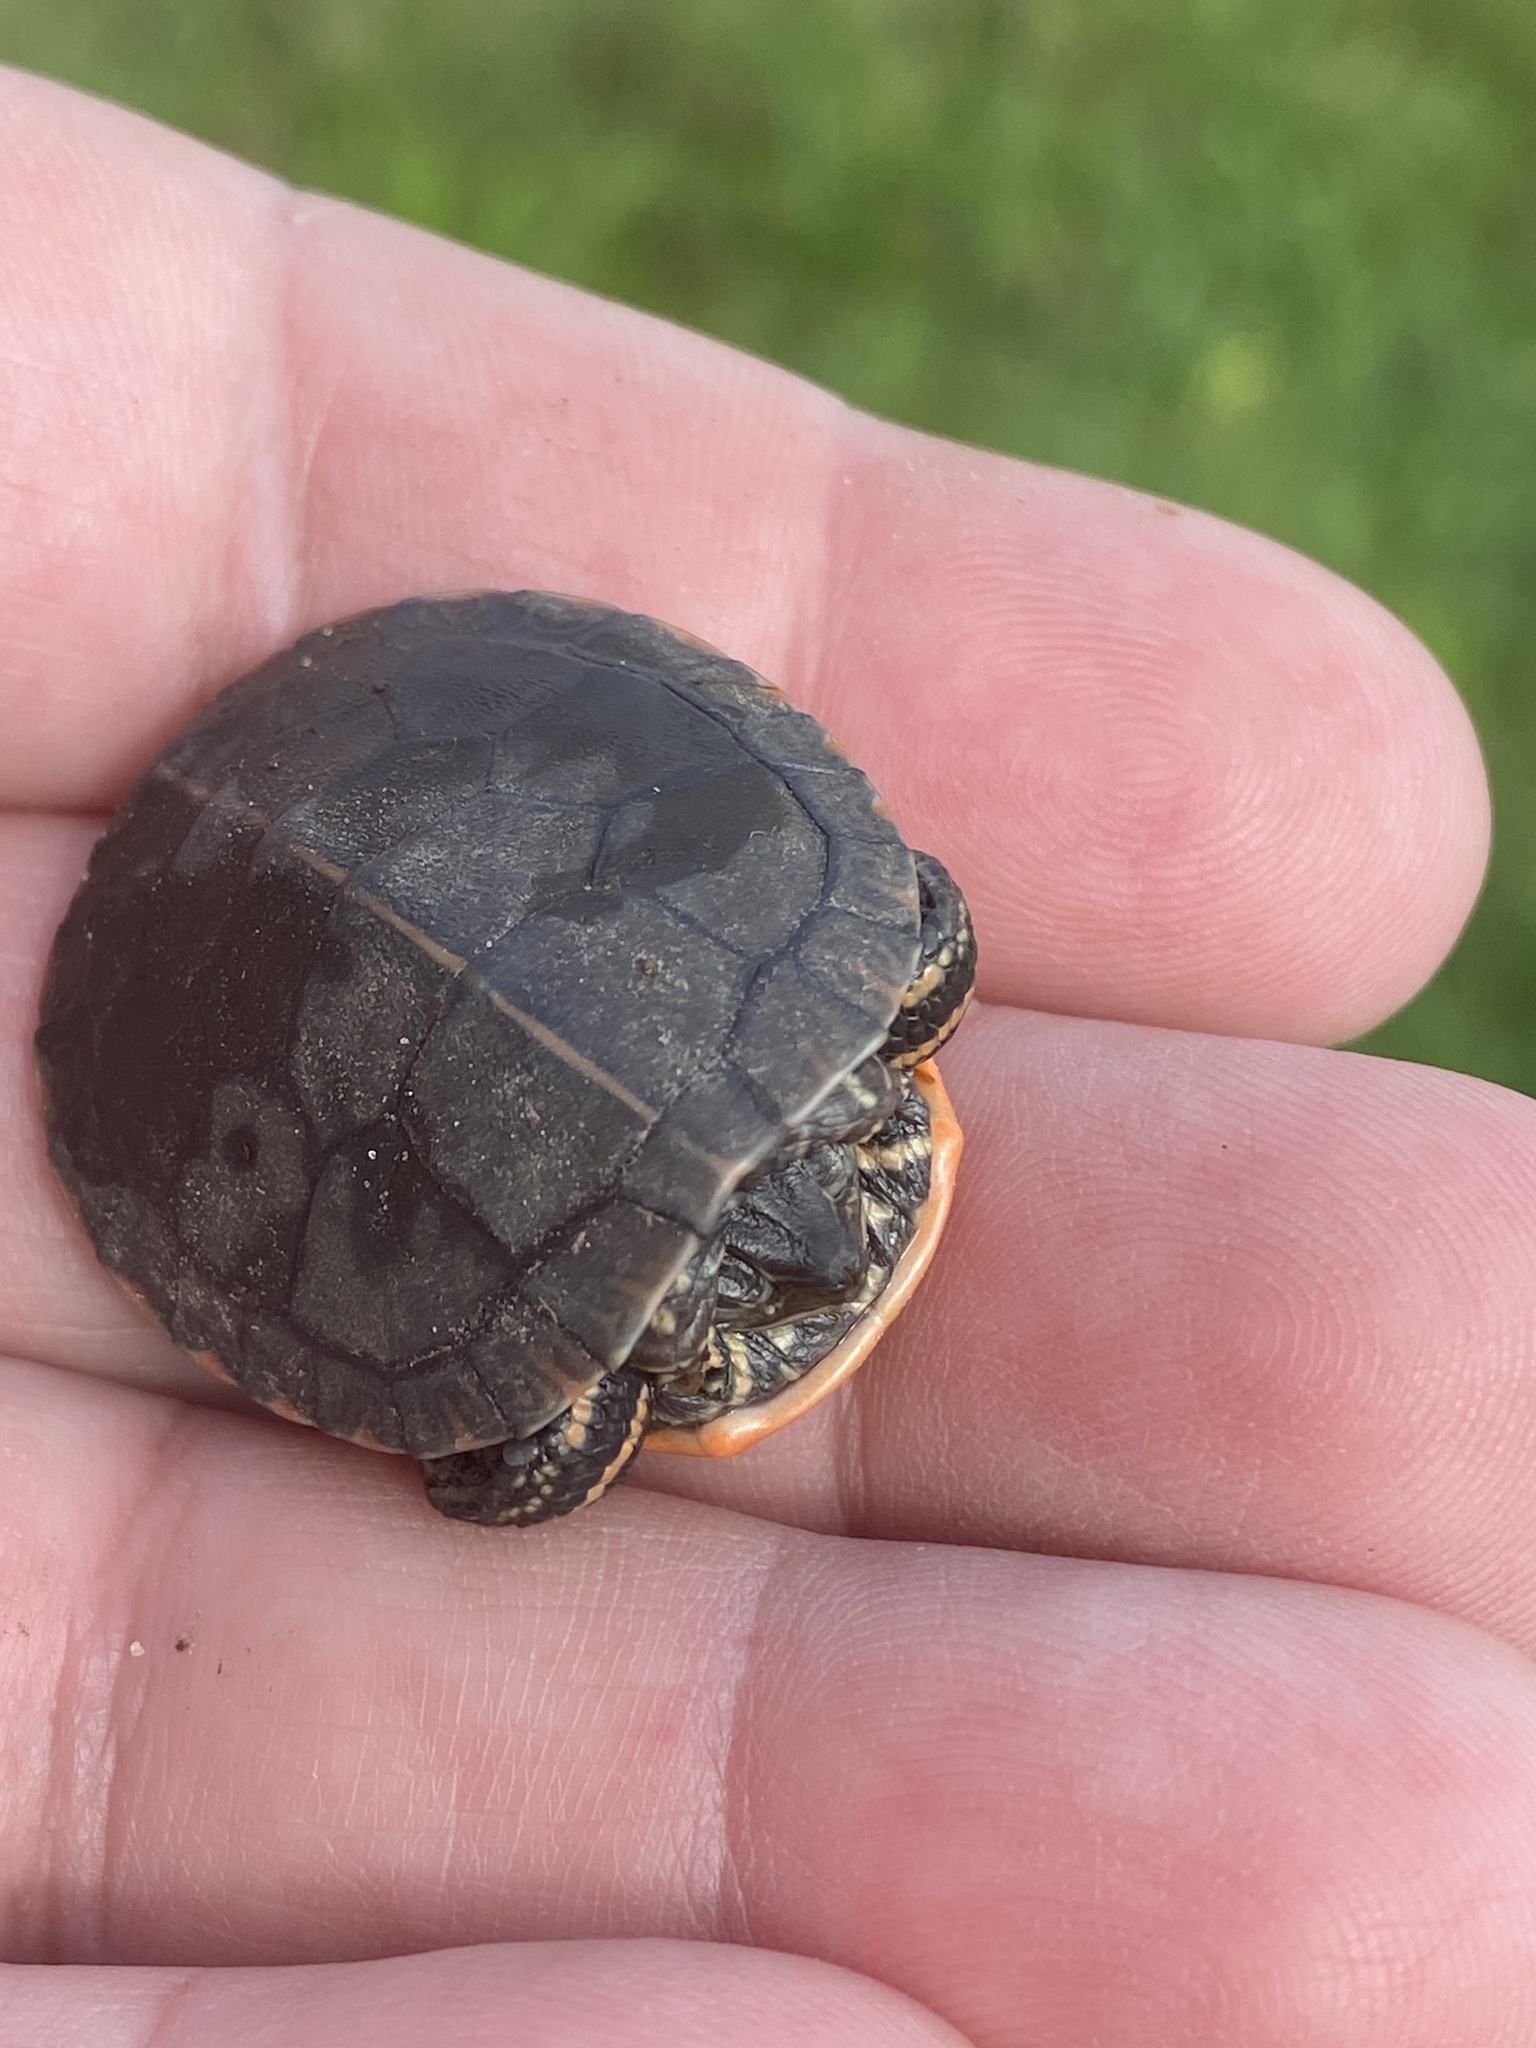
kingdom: Animalia
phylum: Chordata
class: Testudines
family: Emydidae
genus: Chrysemys
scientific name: Chrysemys picta
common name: Painted turtle
